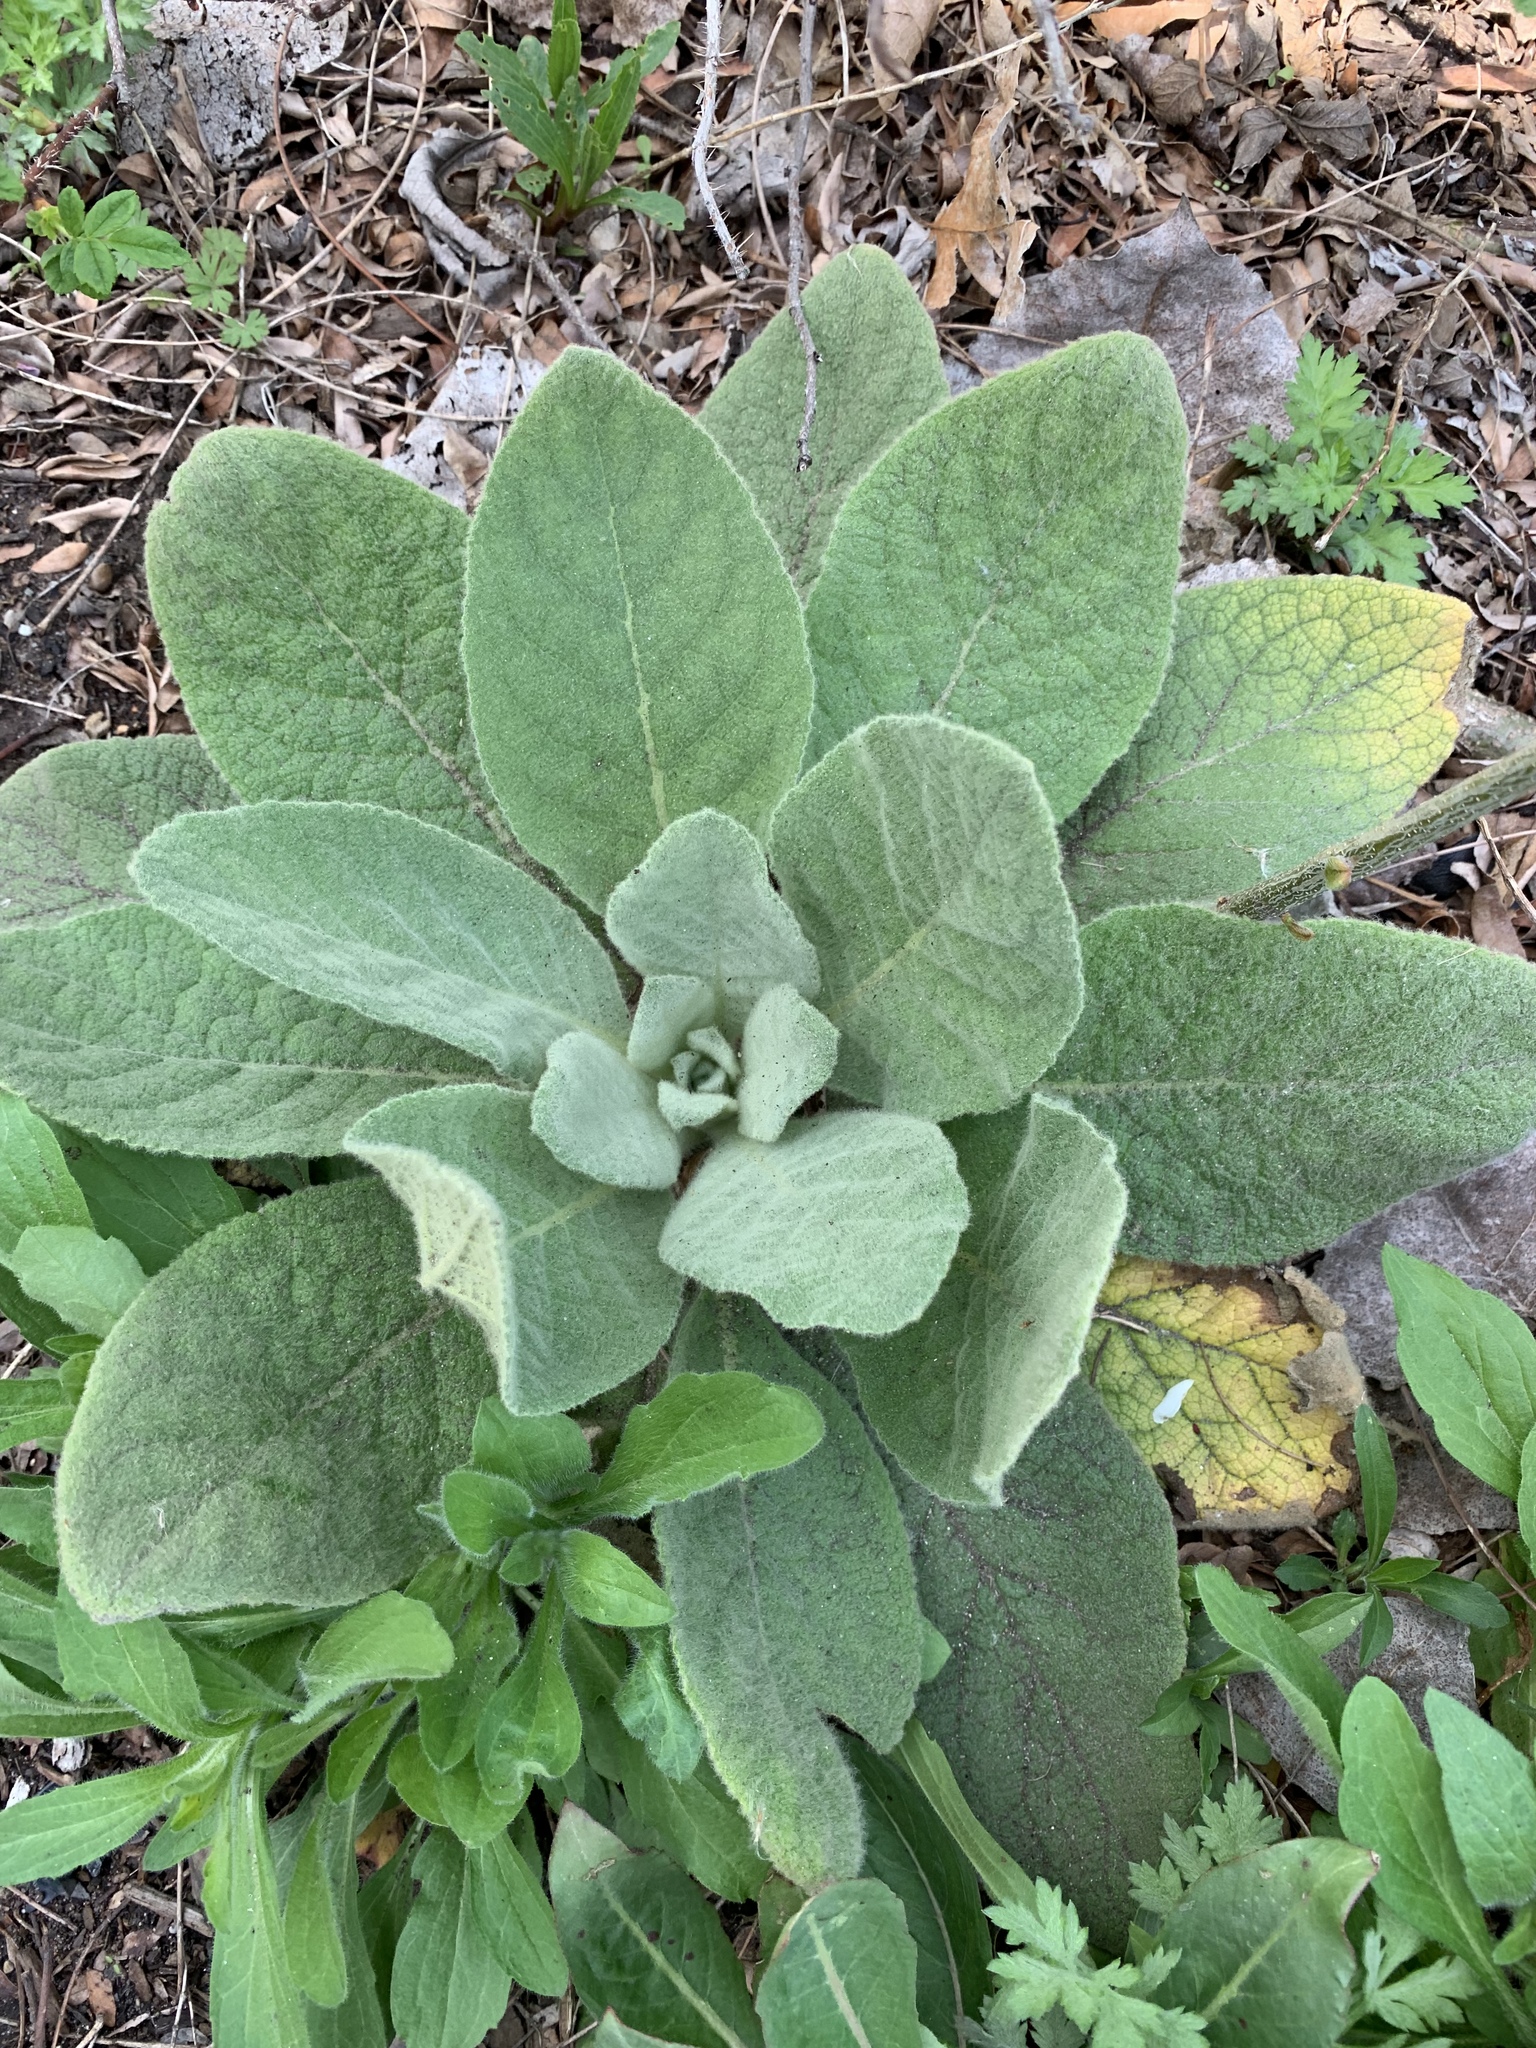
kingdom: Plantae
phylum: Tracheophyta
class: Magnoliopsida
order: Lamiales
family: Scrophulariaceae
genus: Verbascum
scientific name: Verbascum thapsus
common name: Common mullein
